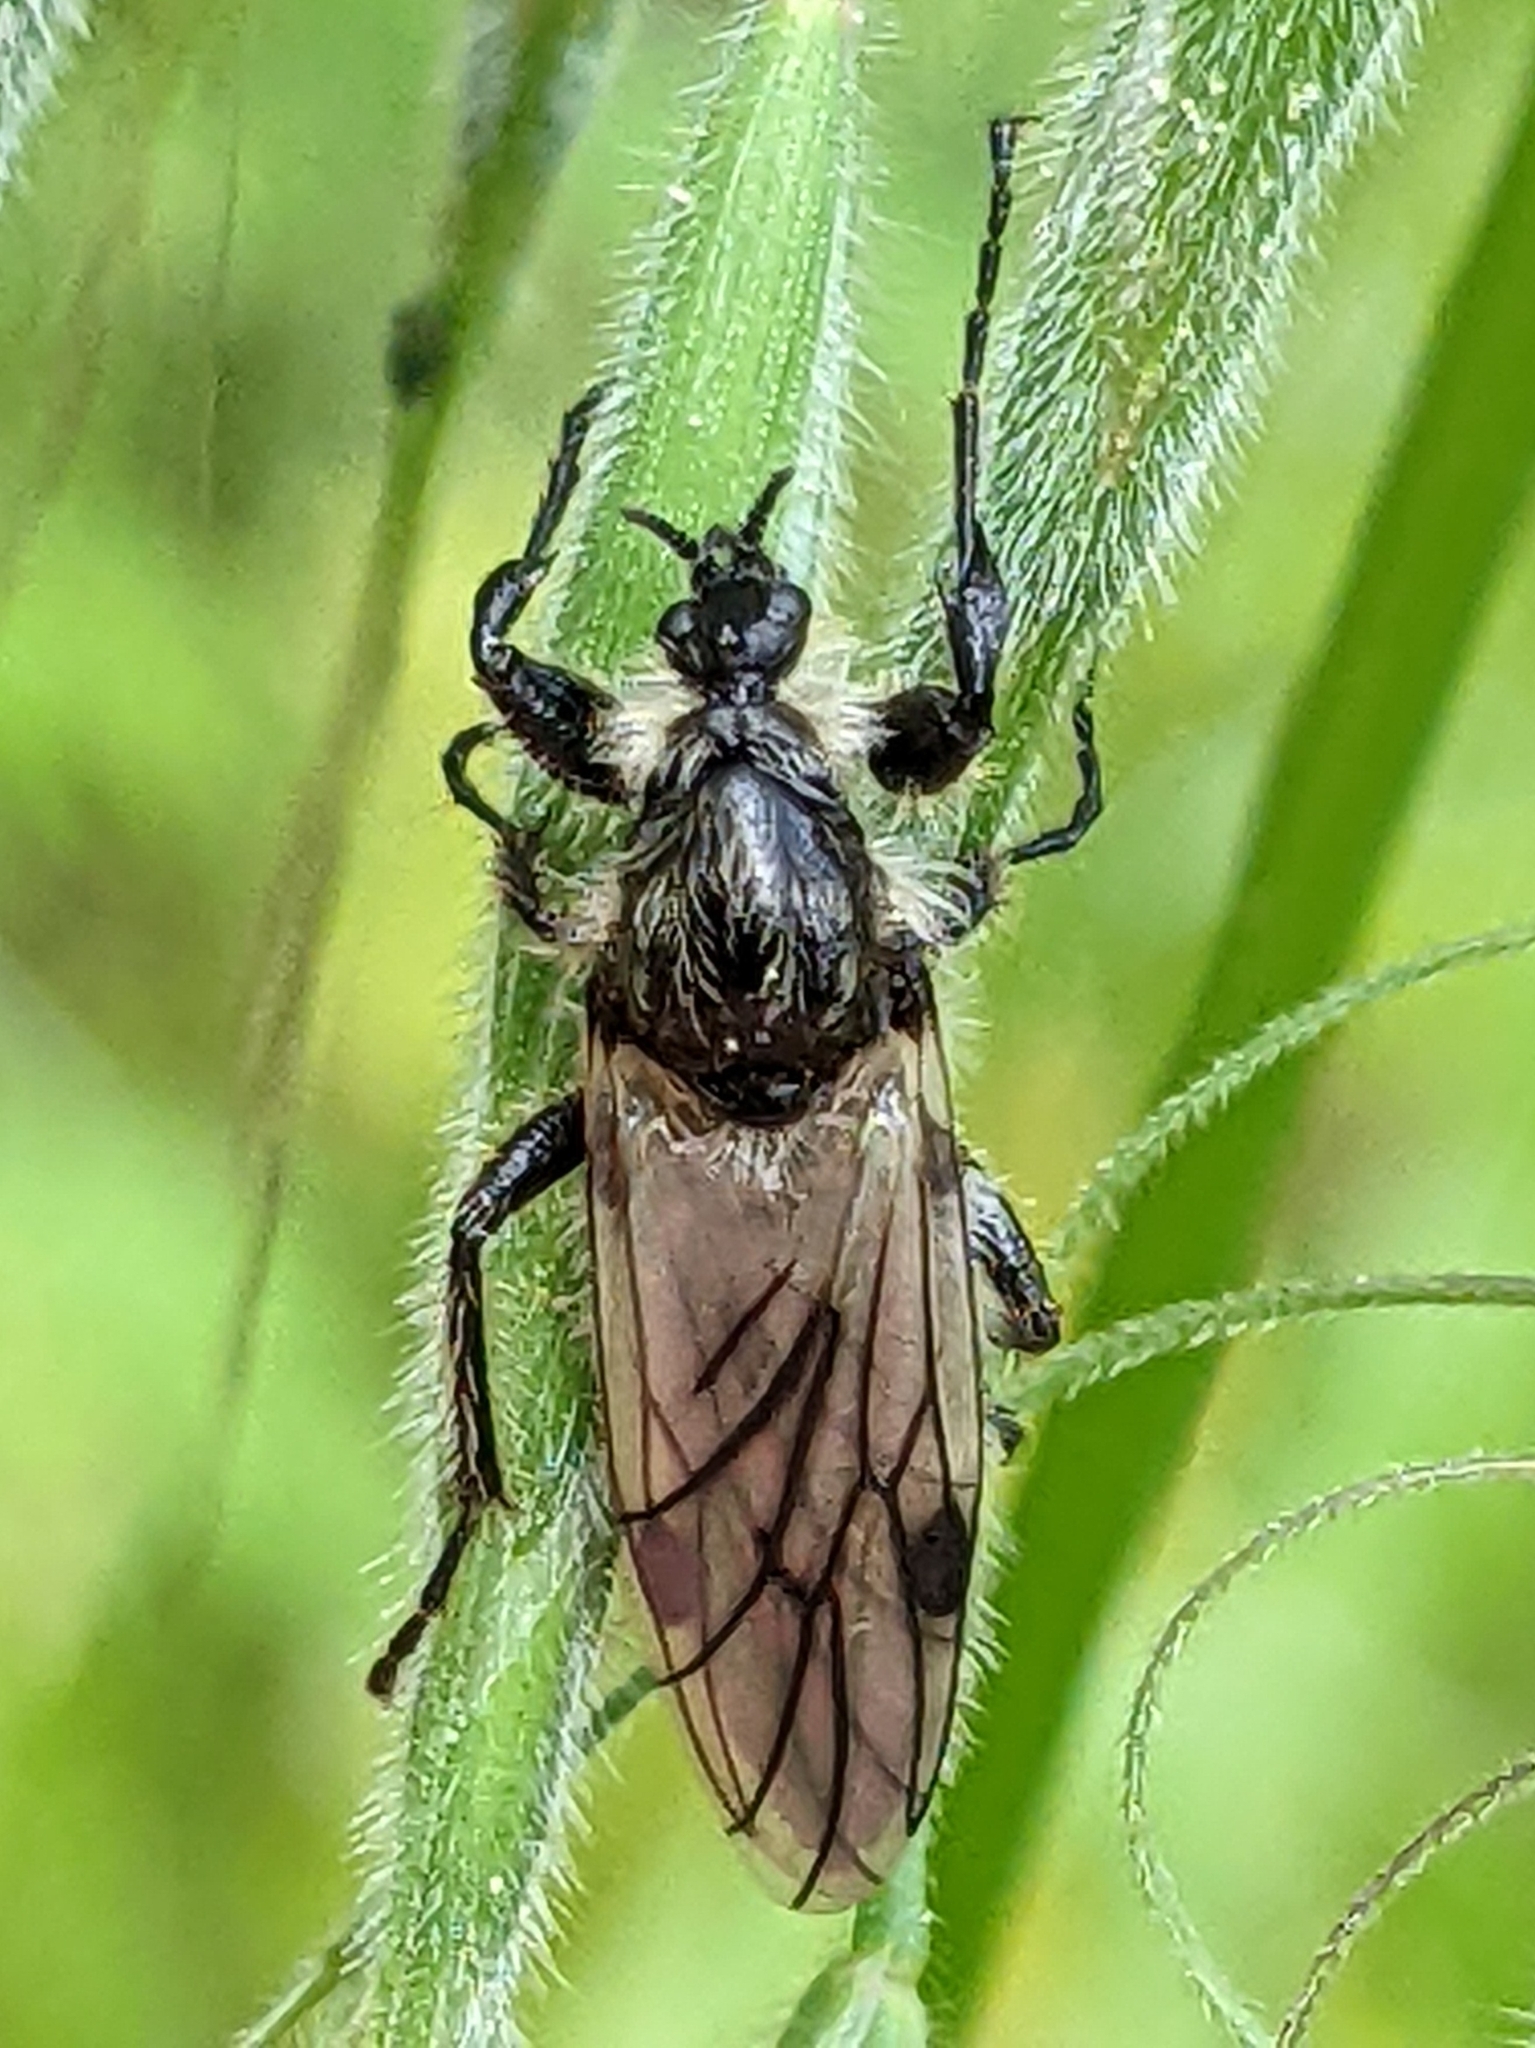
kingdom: Animalia
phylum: Arthropoda
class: Insecta
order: Diptera
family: Bibionidae
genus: Bibio
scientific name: Bibio albipennis
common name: White-winged march fly
